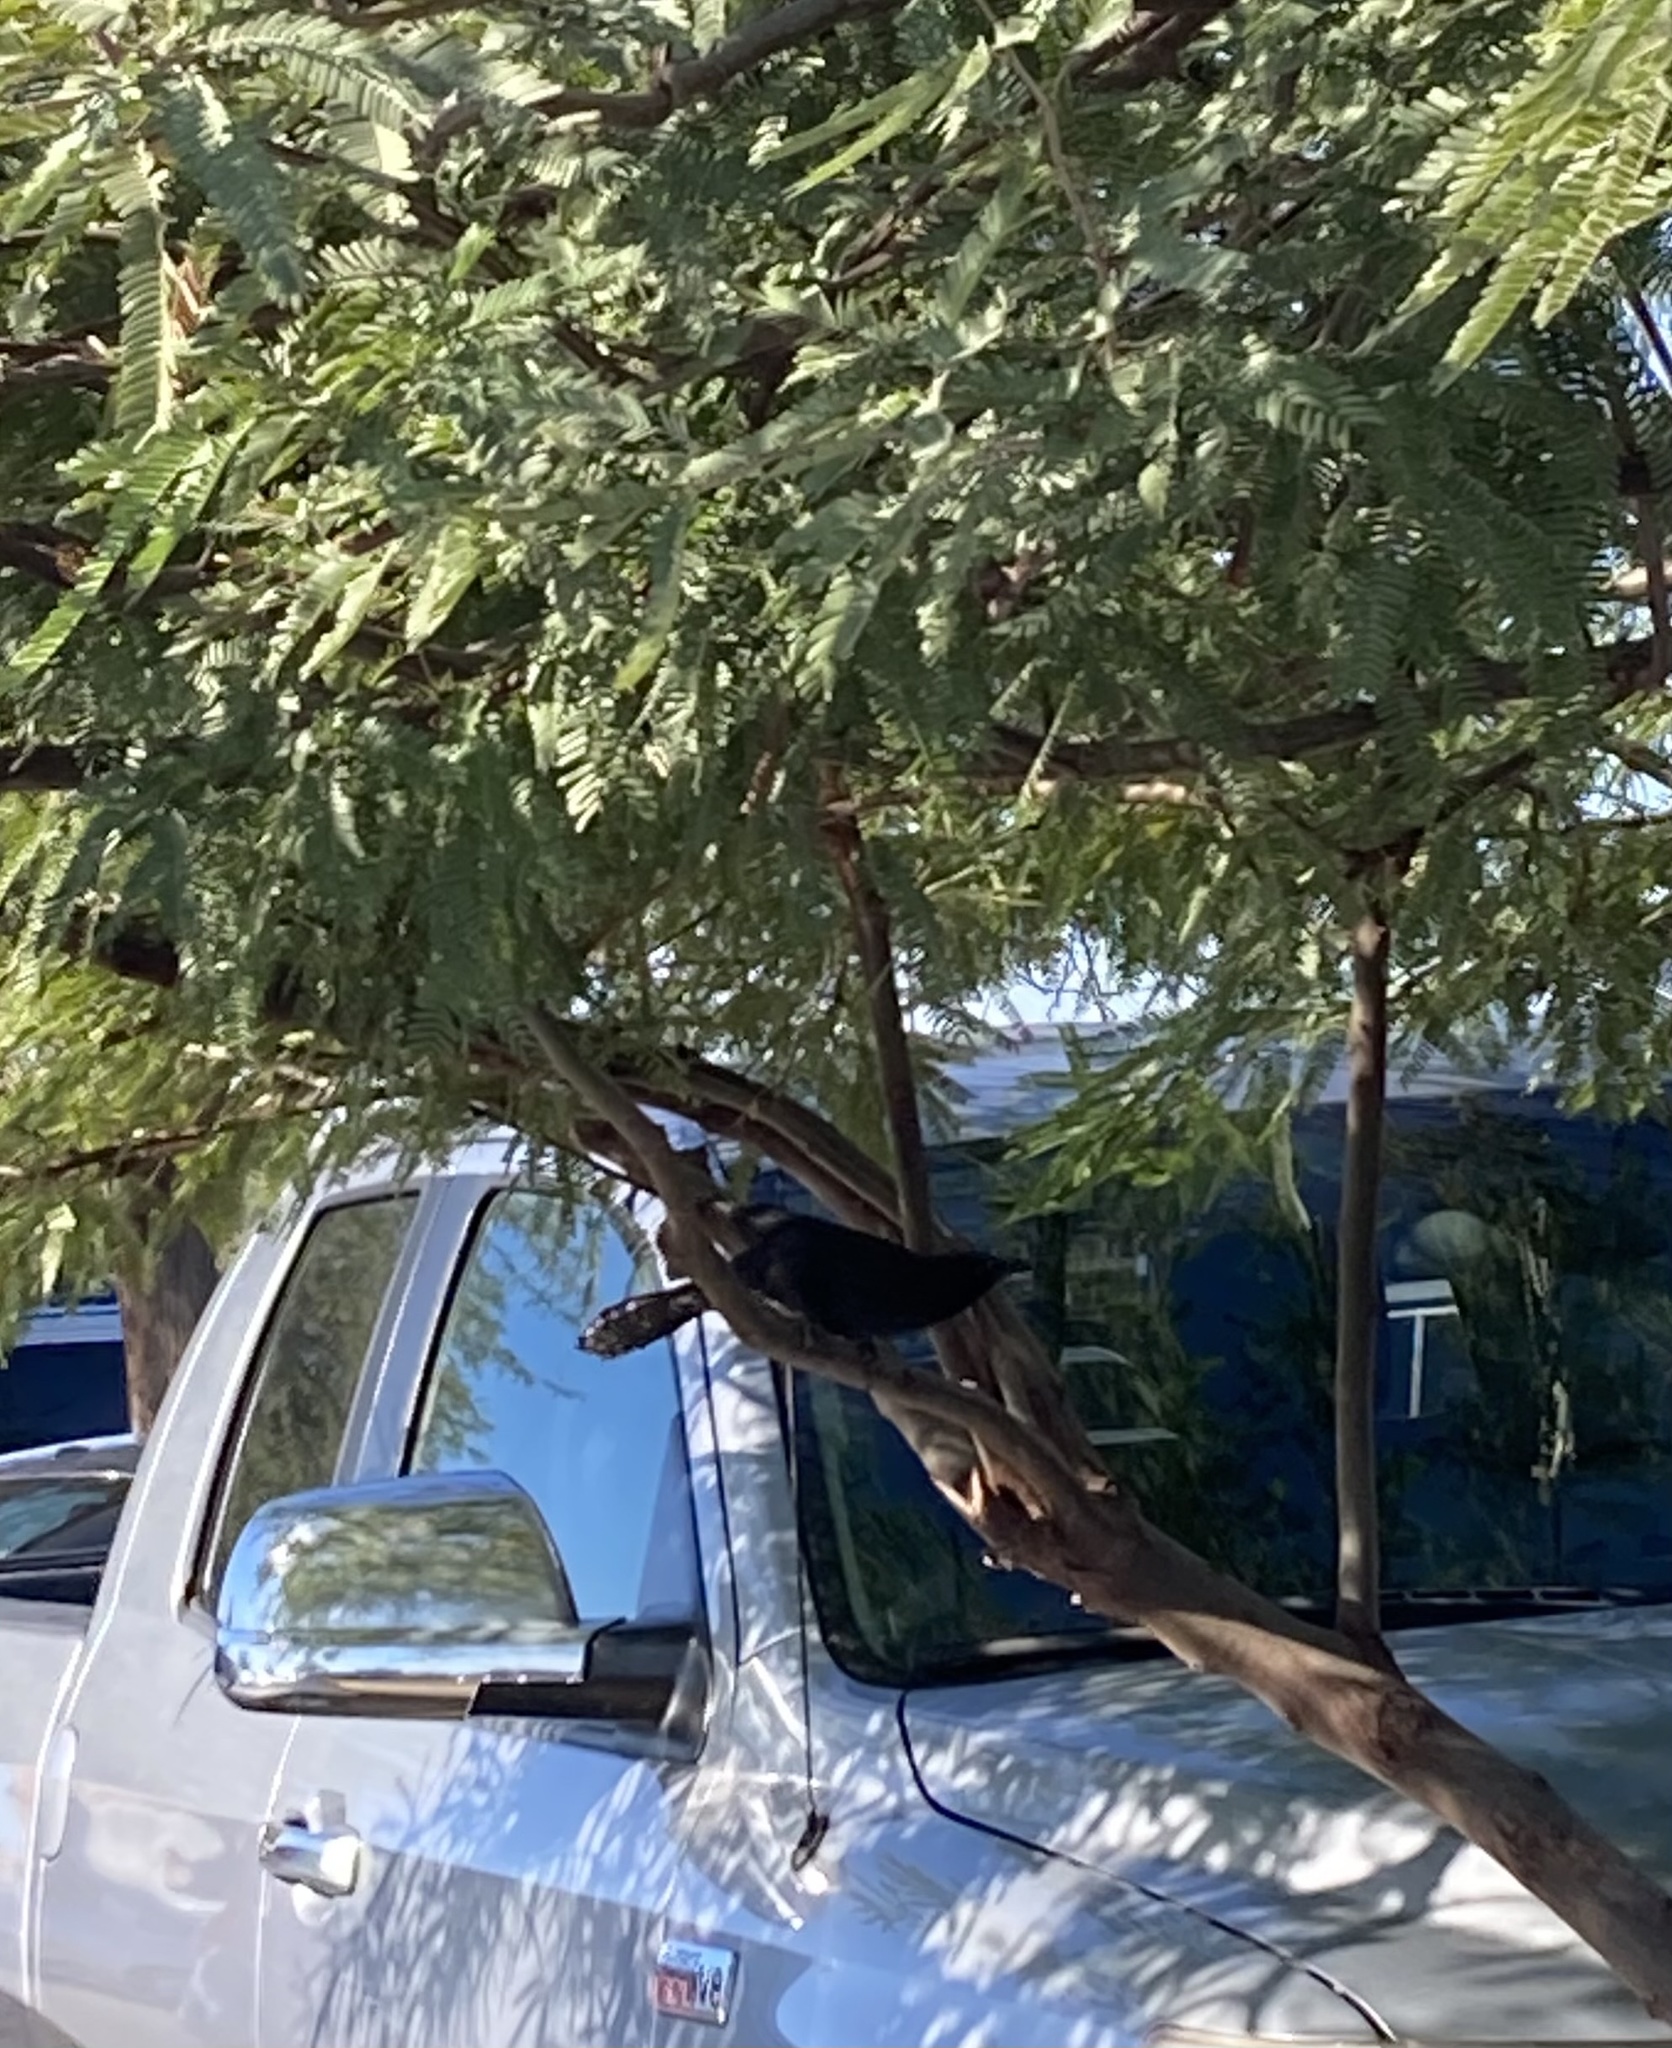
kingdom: Animalia
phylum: Chordata
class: Aves
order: Passeriformes
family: Icteridae
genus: Quiscalus
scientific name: Quiscalus mexicanus
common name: Great-tailed grackle
